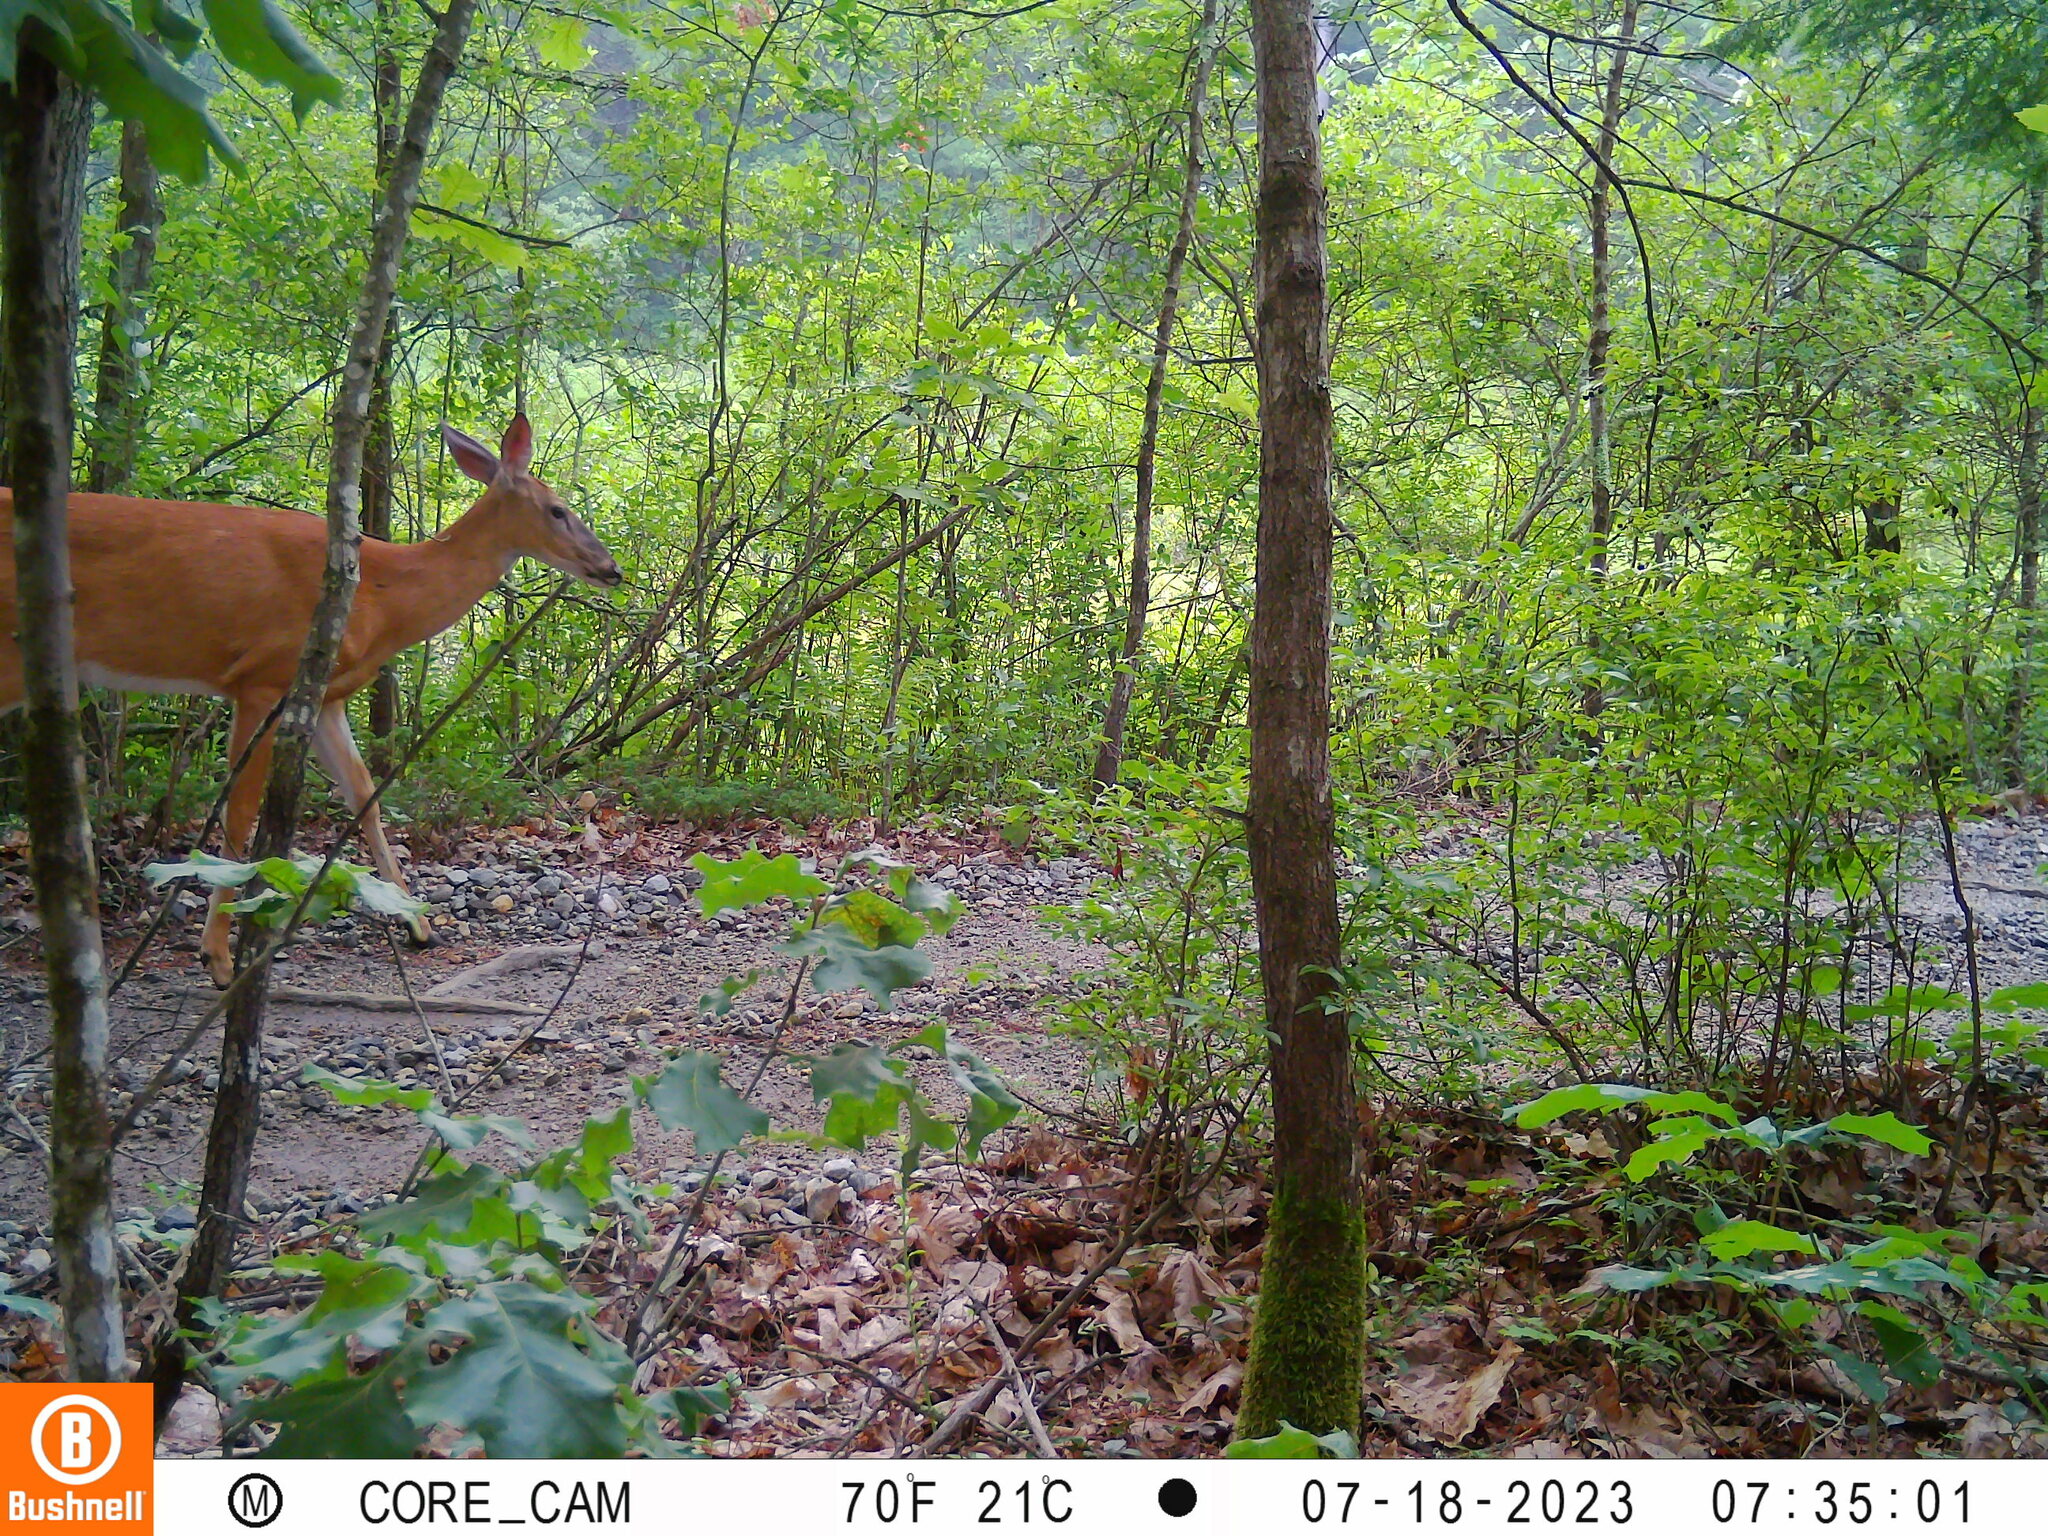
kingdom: Animalia
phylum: Chordata
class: Mammalia
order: Artiodactyla
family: Cervidae
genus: Odocoileus
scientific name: Odocoileus virginianus
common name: White-tailed deer
